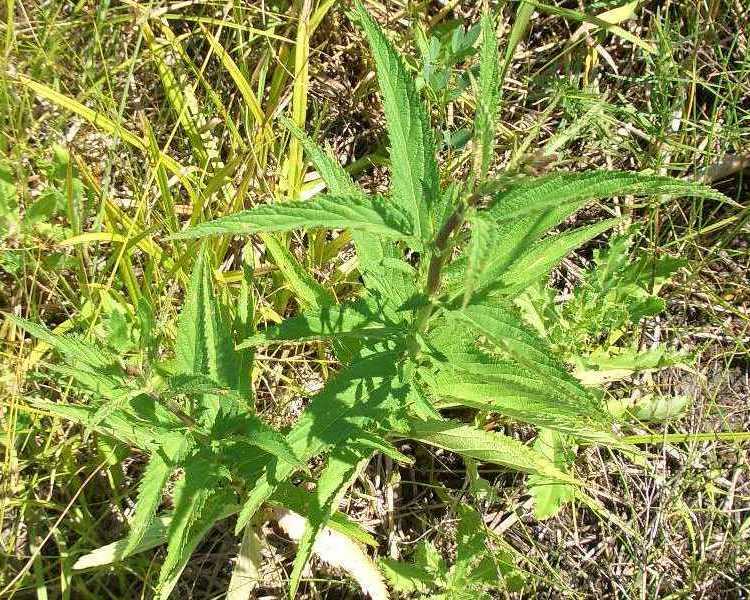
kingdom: Plantae
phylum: Tracheophyta
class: Magnoliopsida
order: Lamiales
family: Verbenaceae
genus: Verbena
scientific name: Verbena hastata
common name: American blue vervain
